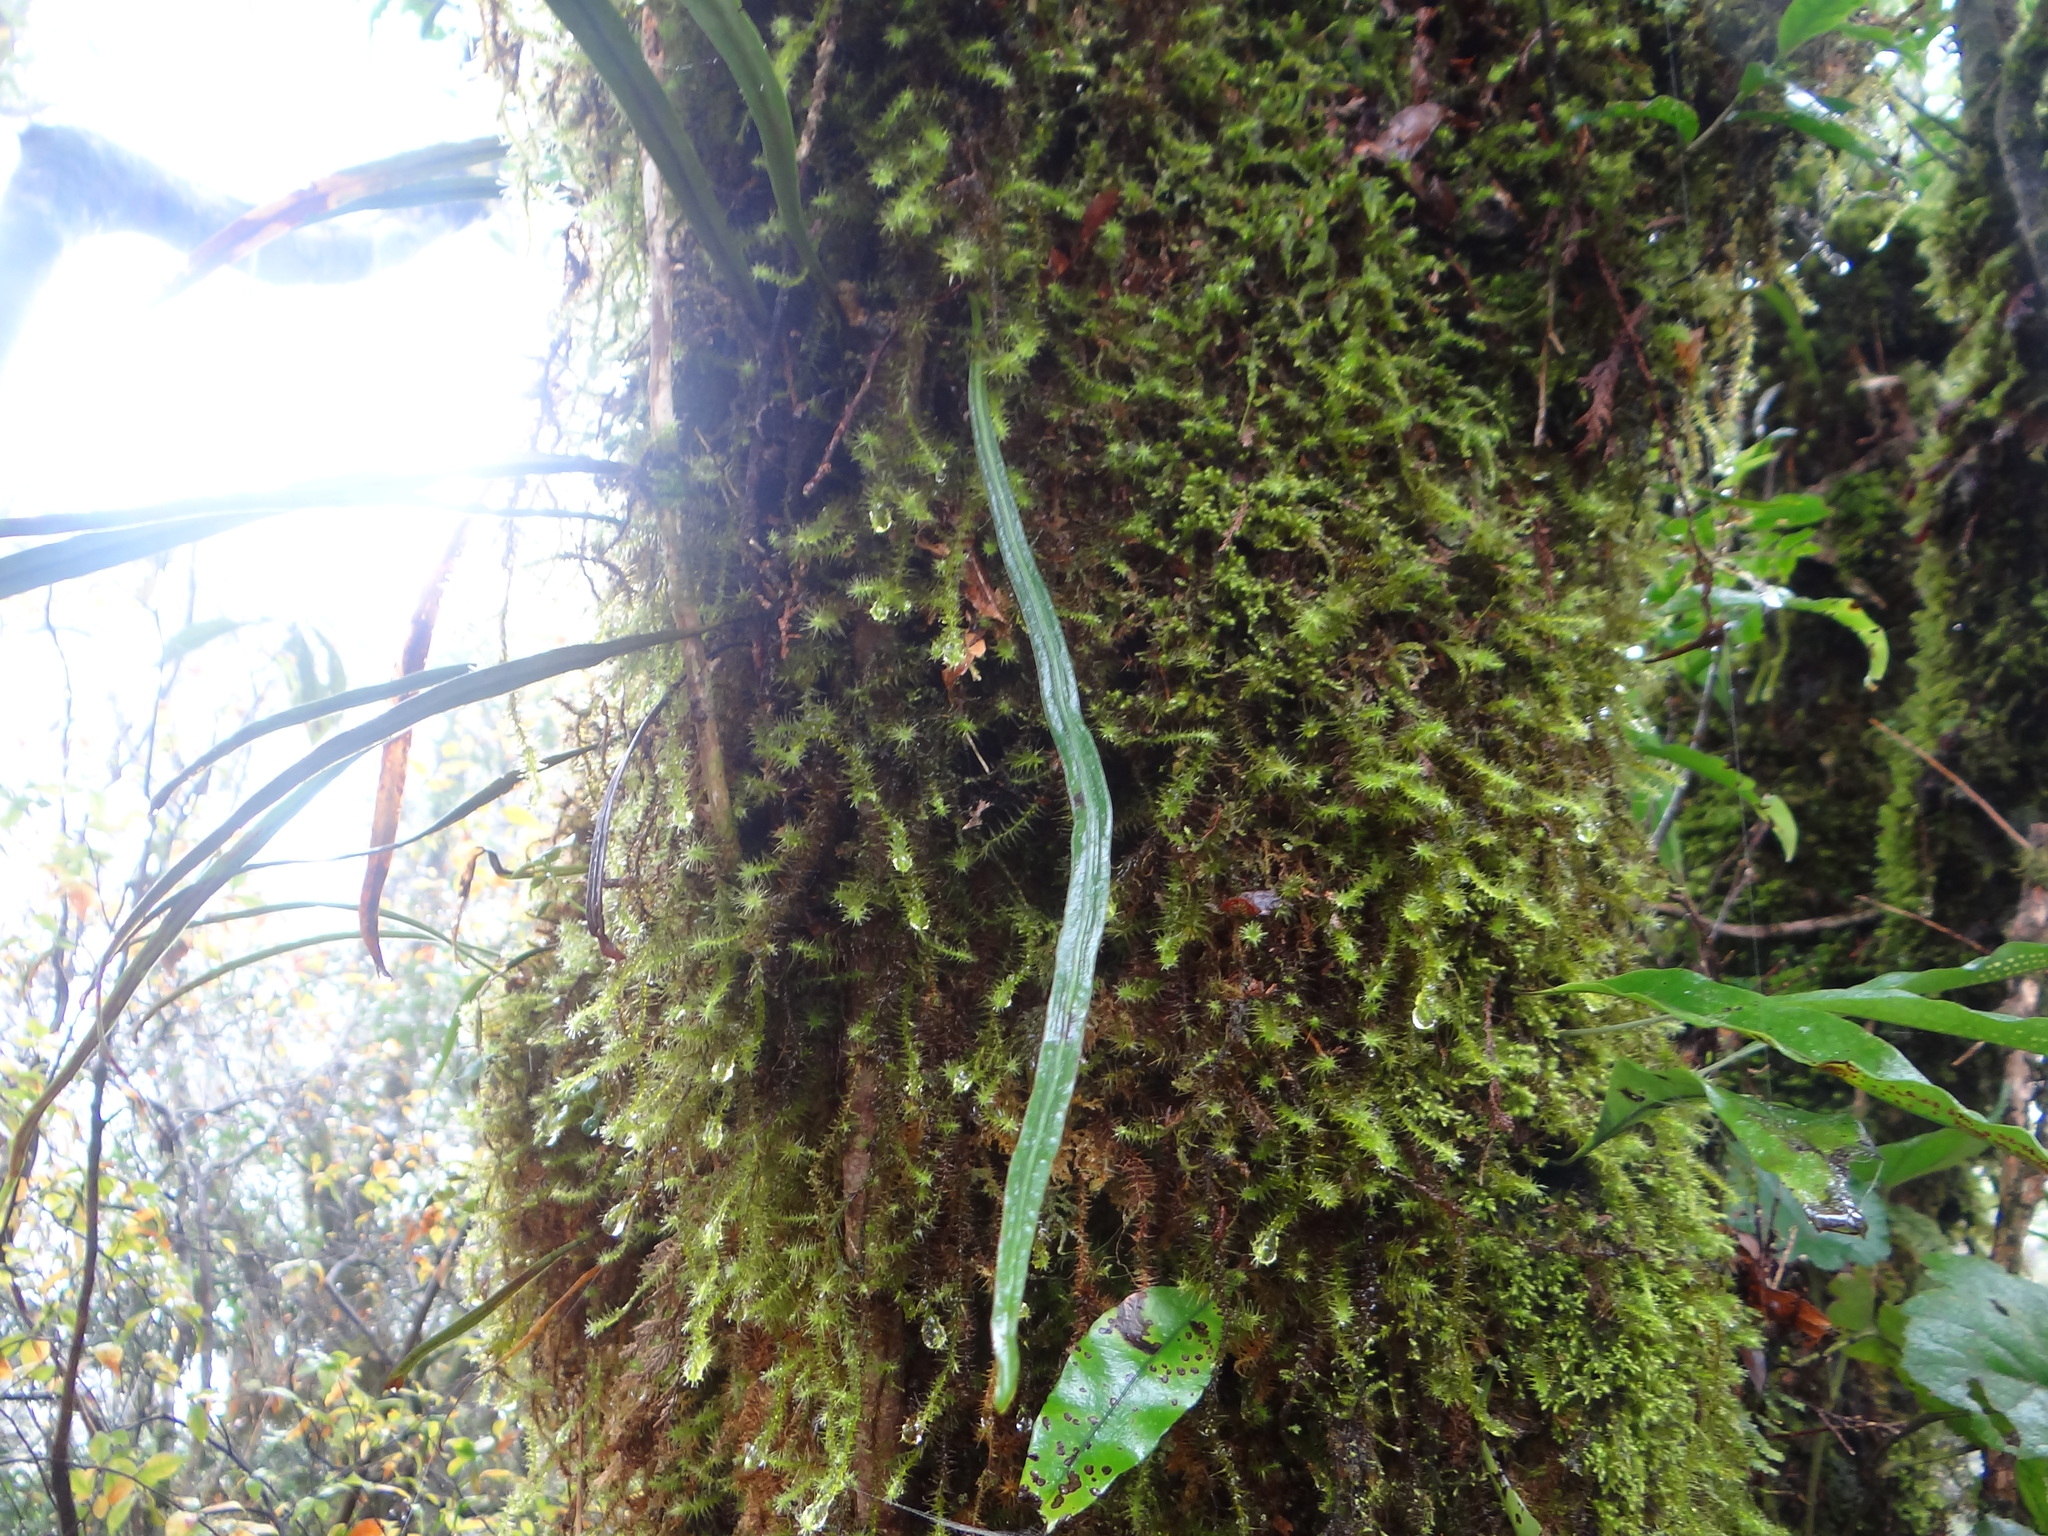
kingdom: Plantae
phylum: Tracheophyta
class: Polypodiopsida
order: Polypodiales
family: Polypodiaceae
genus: Loxogramme
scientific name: Loxogramme remotefrondigera
